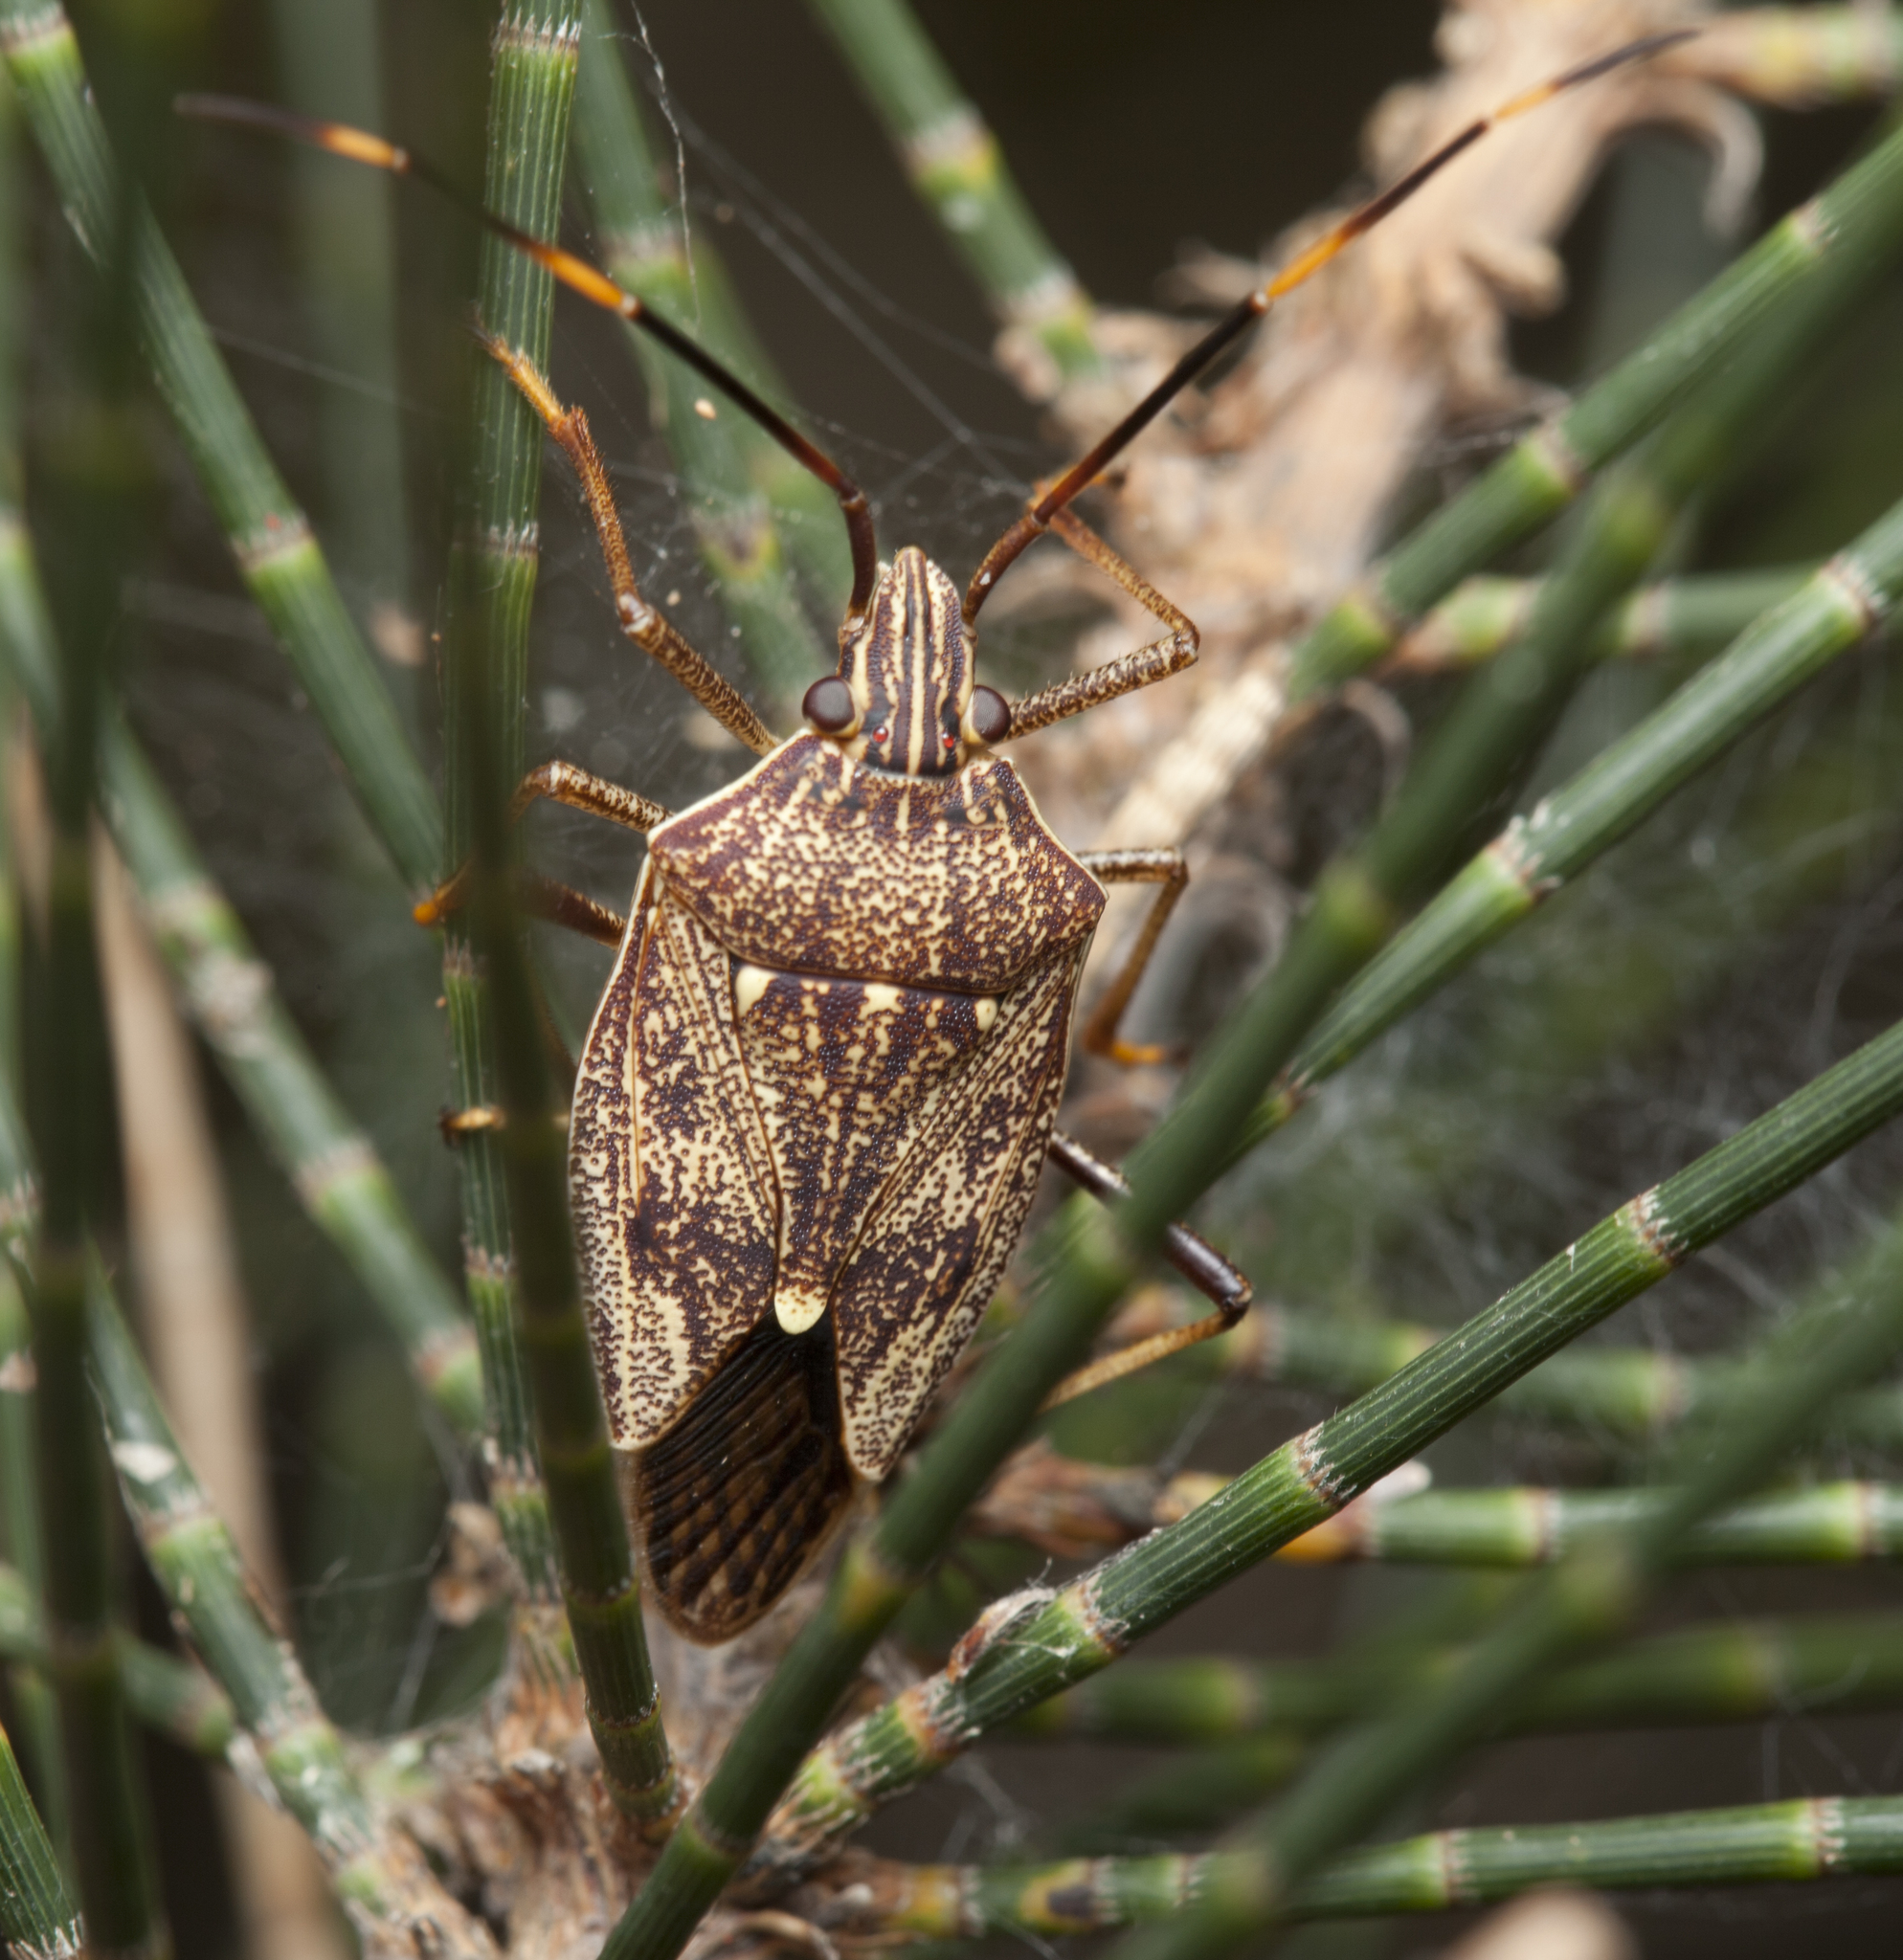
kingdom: Animalia
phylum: Arthropoda
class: Insecta
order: Hemiptera
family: Pentatomidae
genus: Poecilometis
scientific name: Poecilometis
